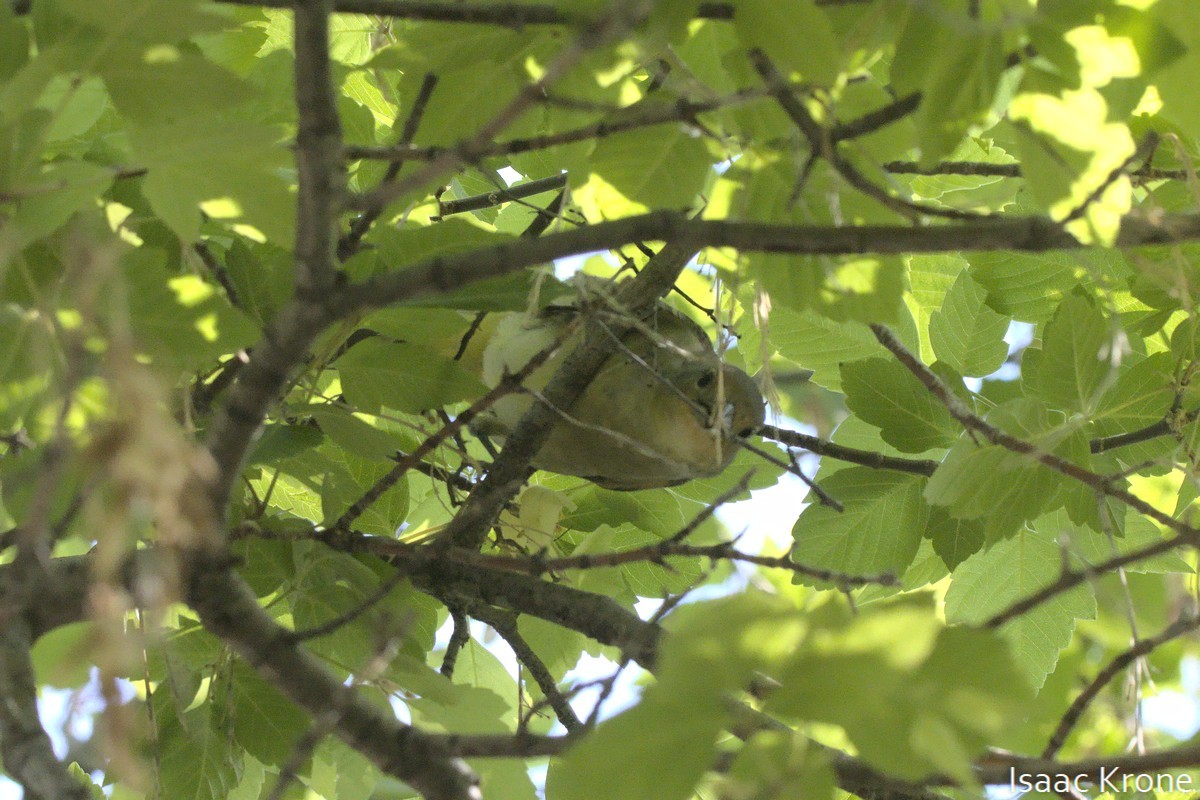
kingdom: Animalia
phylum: Chordata
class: Aves
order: Passeriformes
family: Parulidae
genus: Leiothlypis
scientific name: Leiothlypis celata
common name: Orange-crowned warbler
